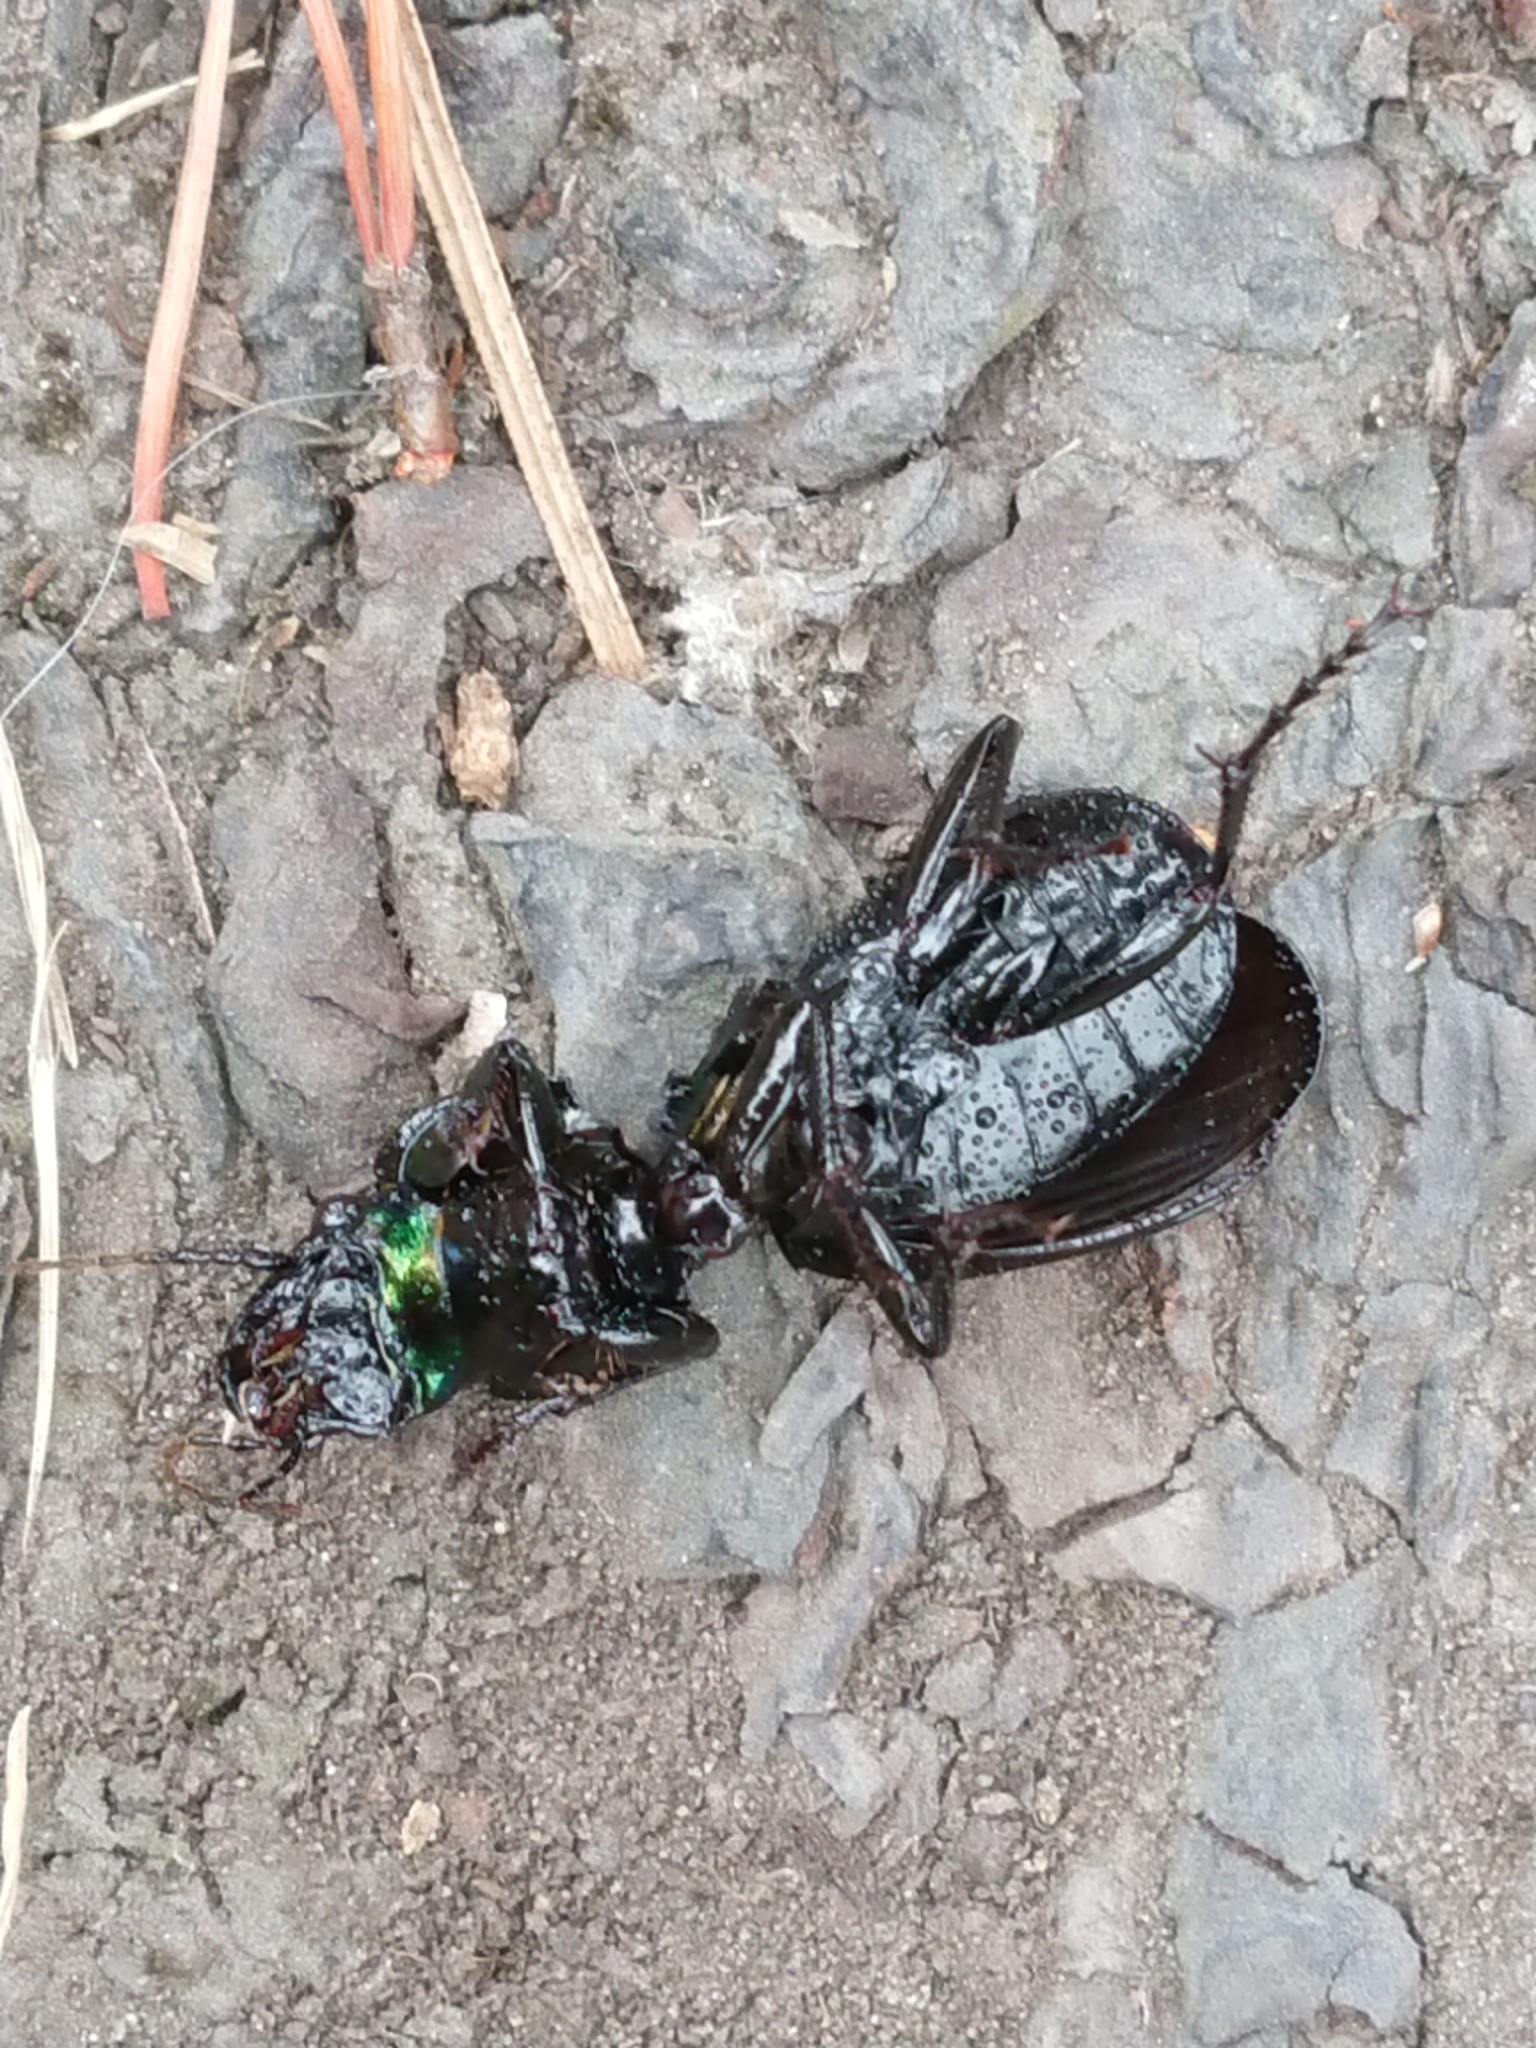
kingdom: Animalia
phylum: Arthropoda
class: Insecta
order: Coleoptera
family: Carabidae
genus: Megadromus
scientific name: Megadromus antarcticus
